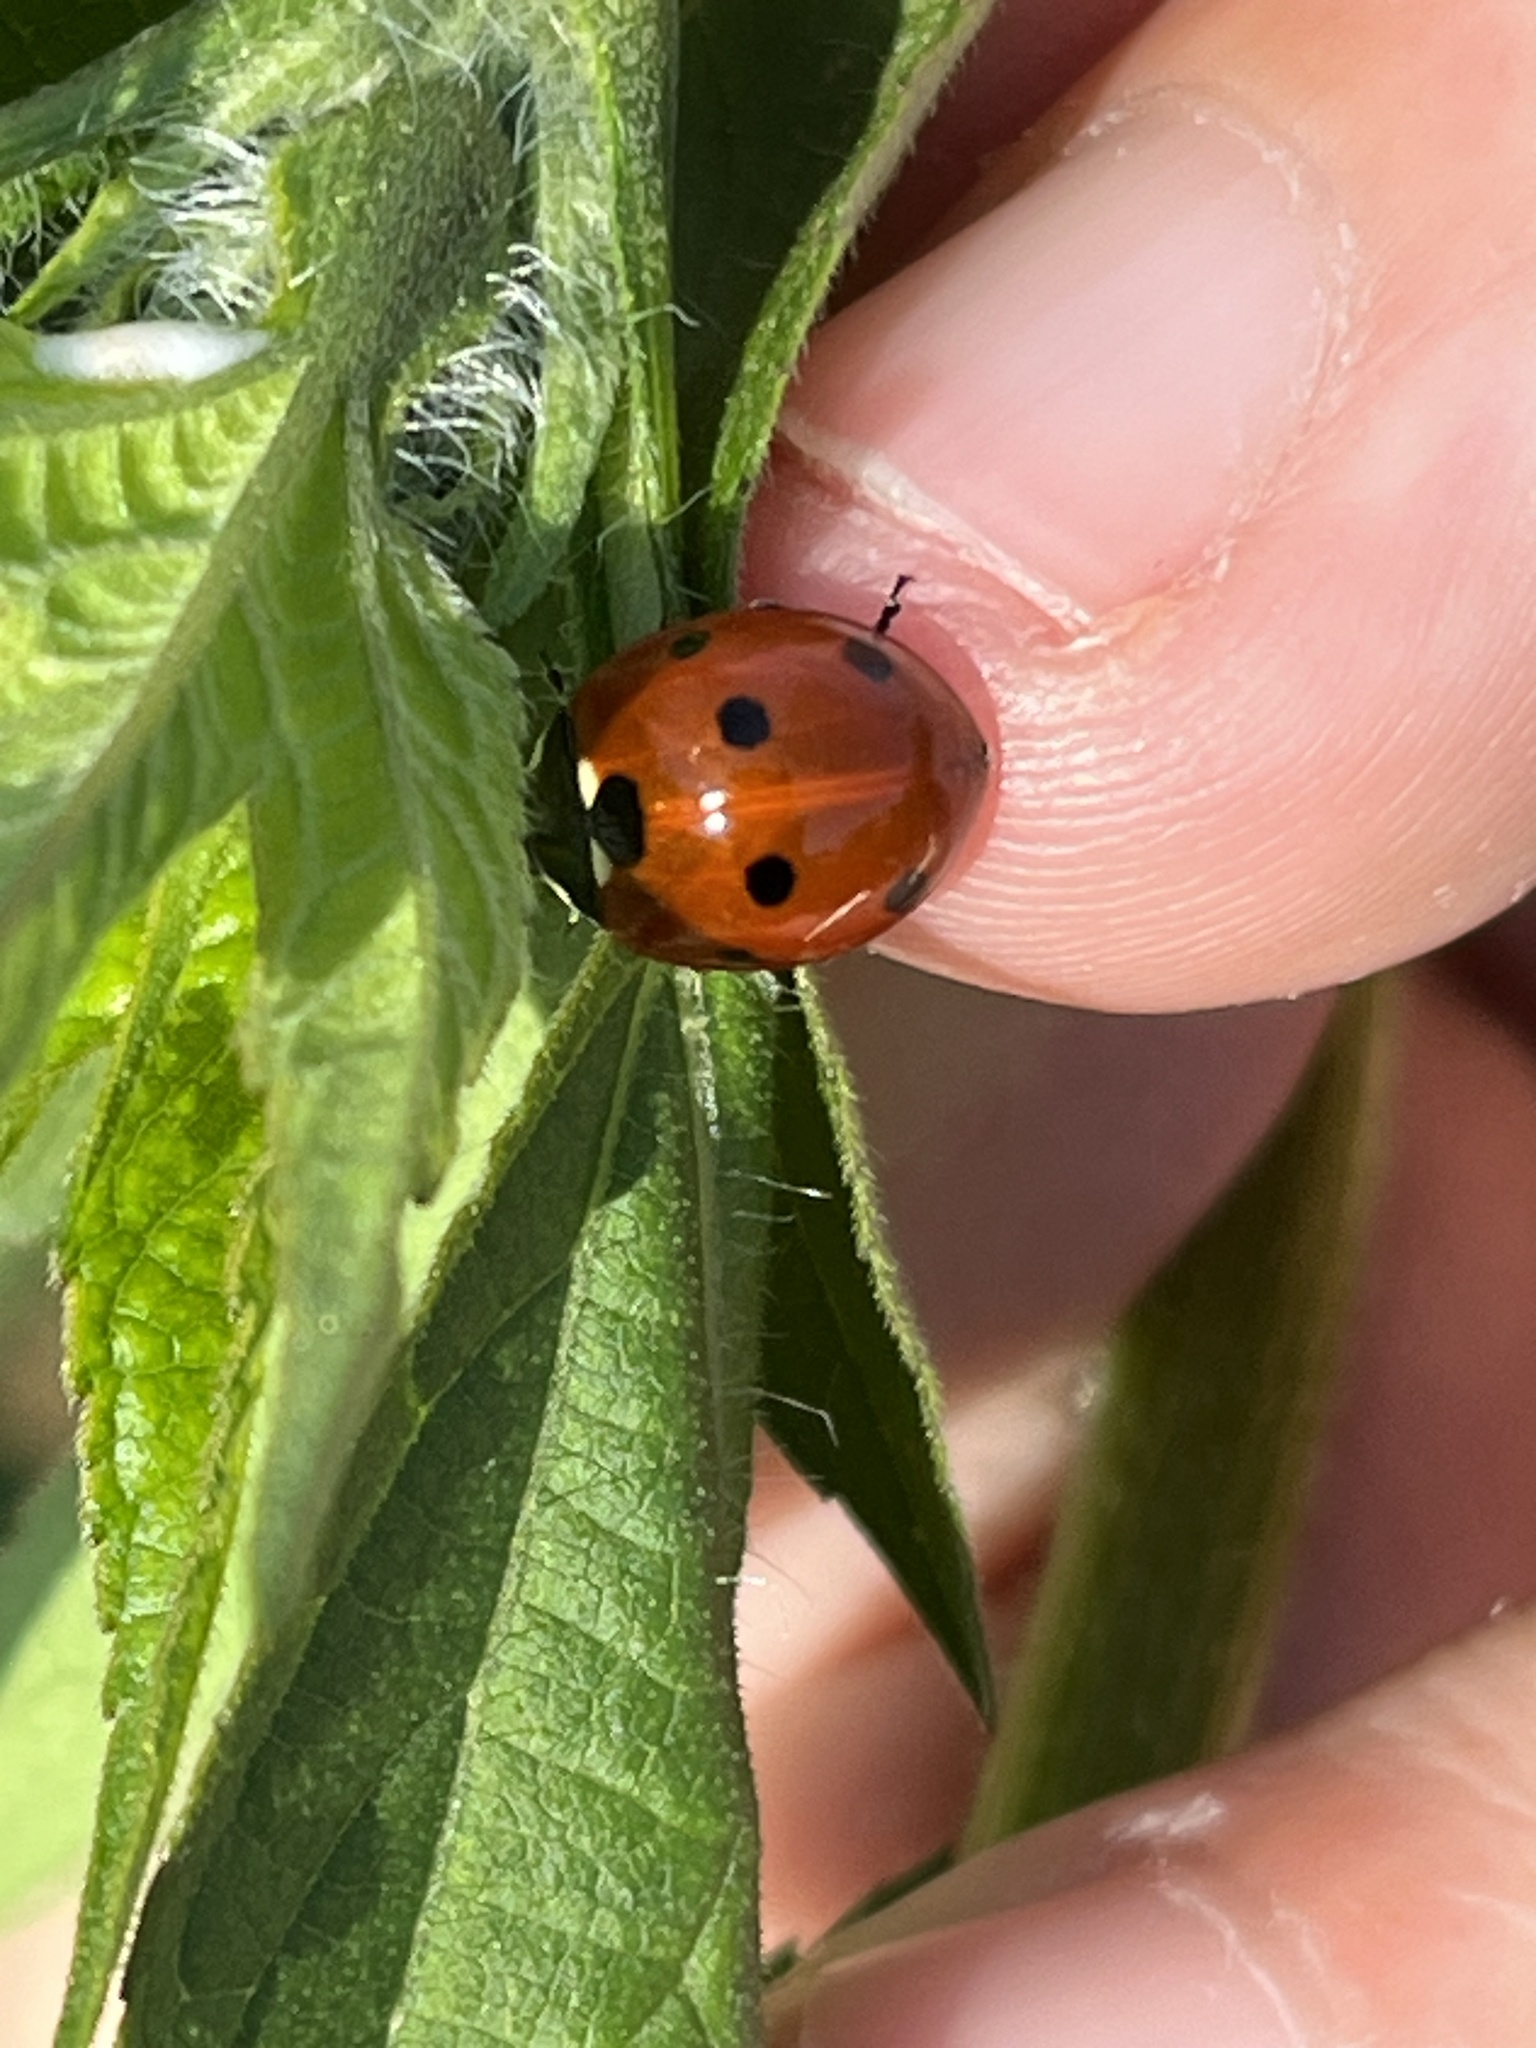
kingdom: Animalia
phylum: Arthropoda
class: Insecta
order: Coleoptera
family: Coccinellidae
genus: Coccinella
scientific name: Coccinella septempunctata
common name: Sevenspotted lady beetle
